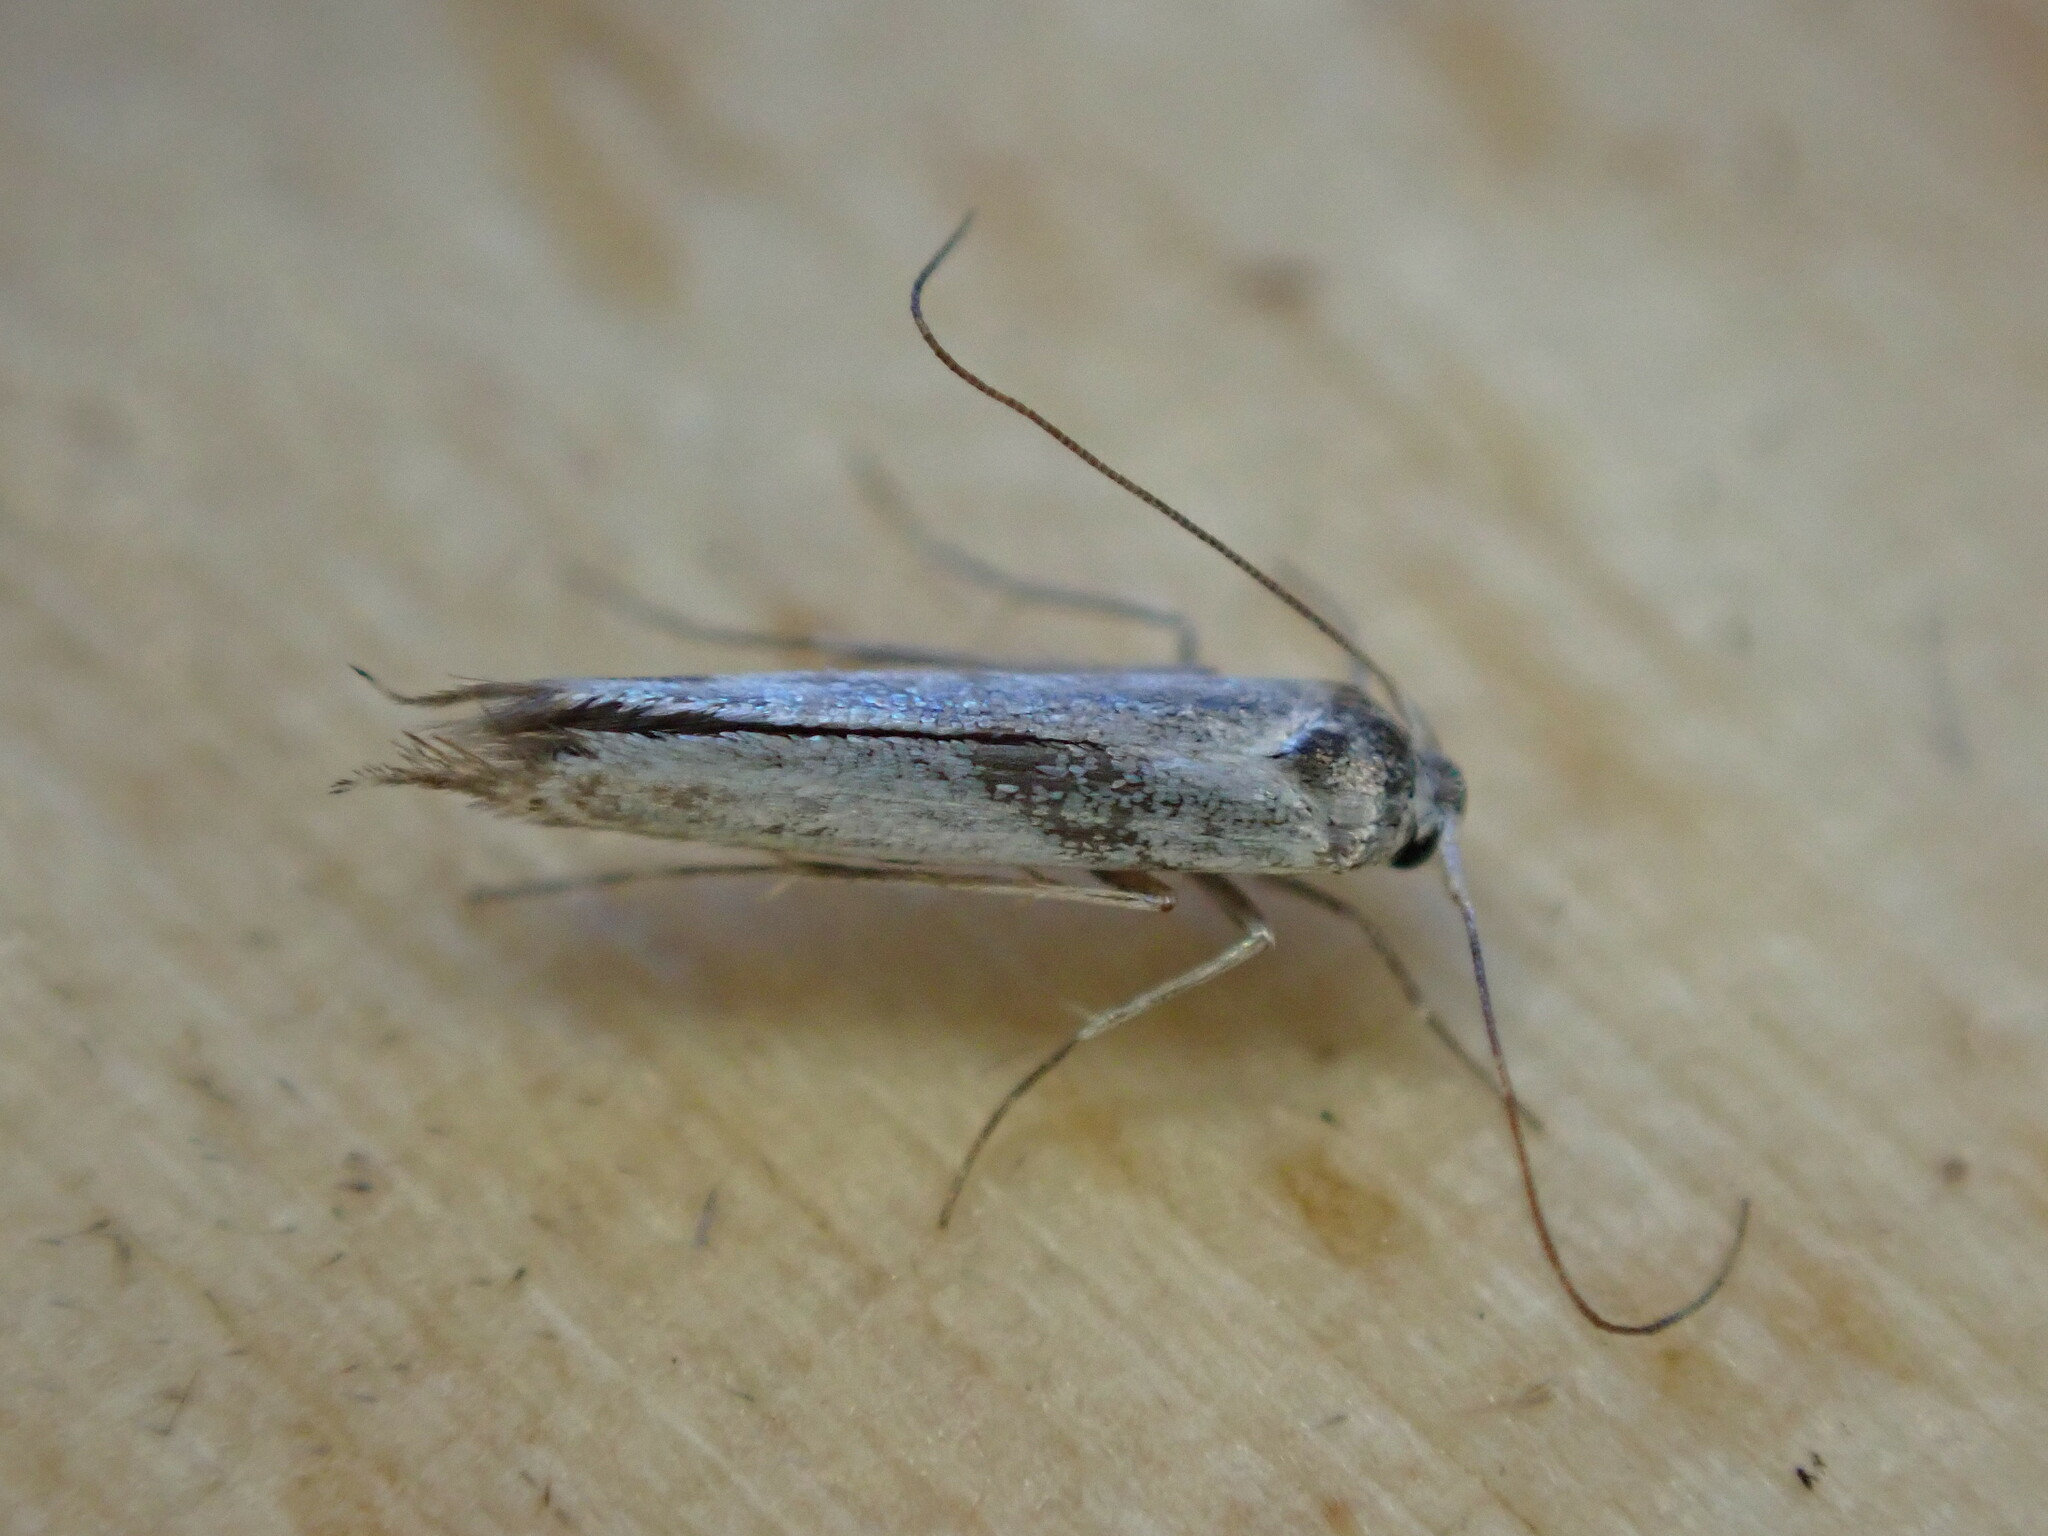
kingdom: Animalia
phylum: Arthropoda
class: Insecta
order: Lepidoptera
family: Lyonetiidae
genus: Lyonetia
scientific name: Lyonetia clerkella
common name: Apple leaf miner
